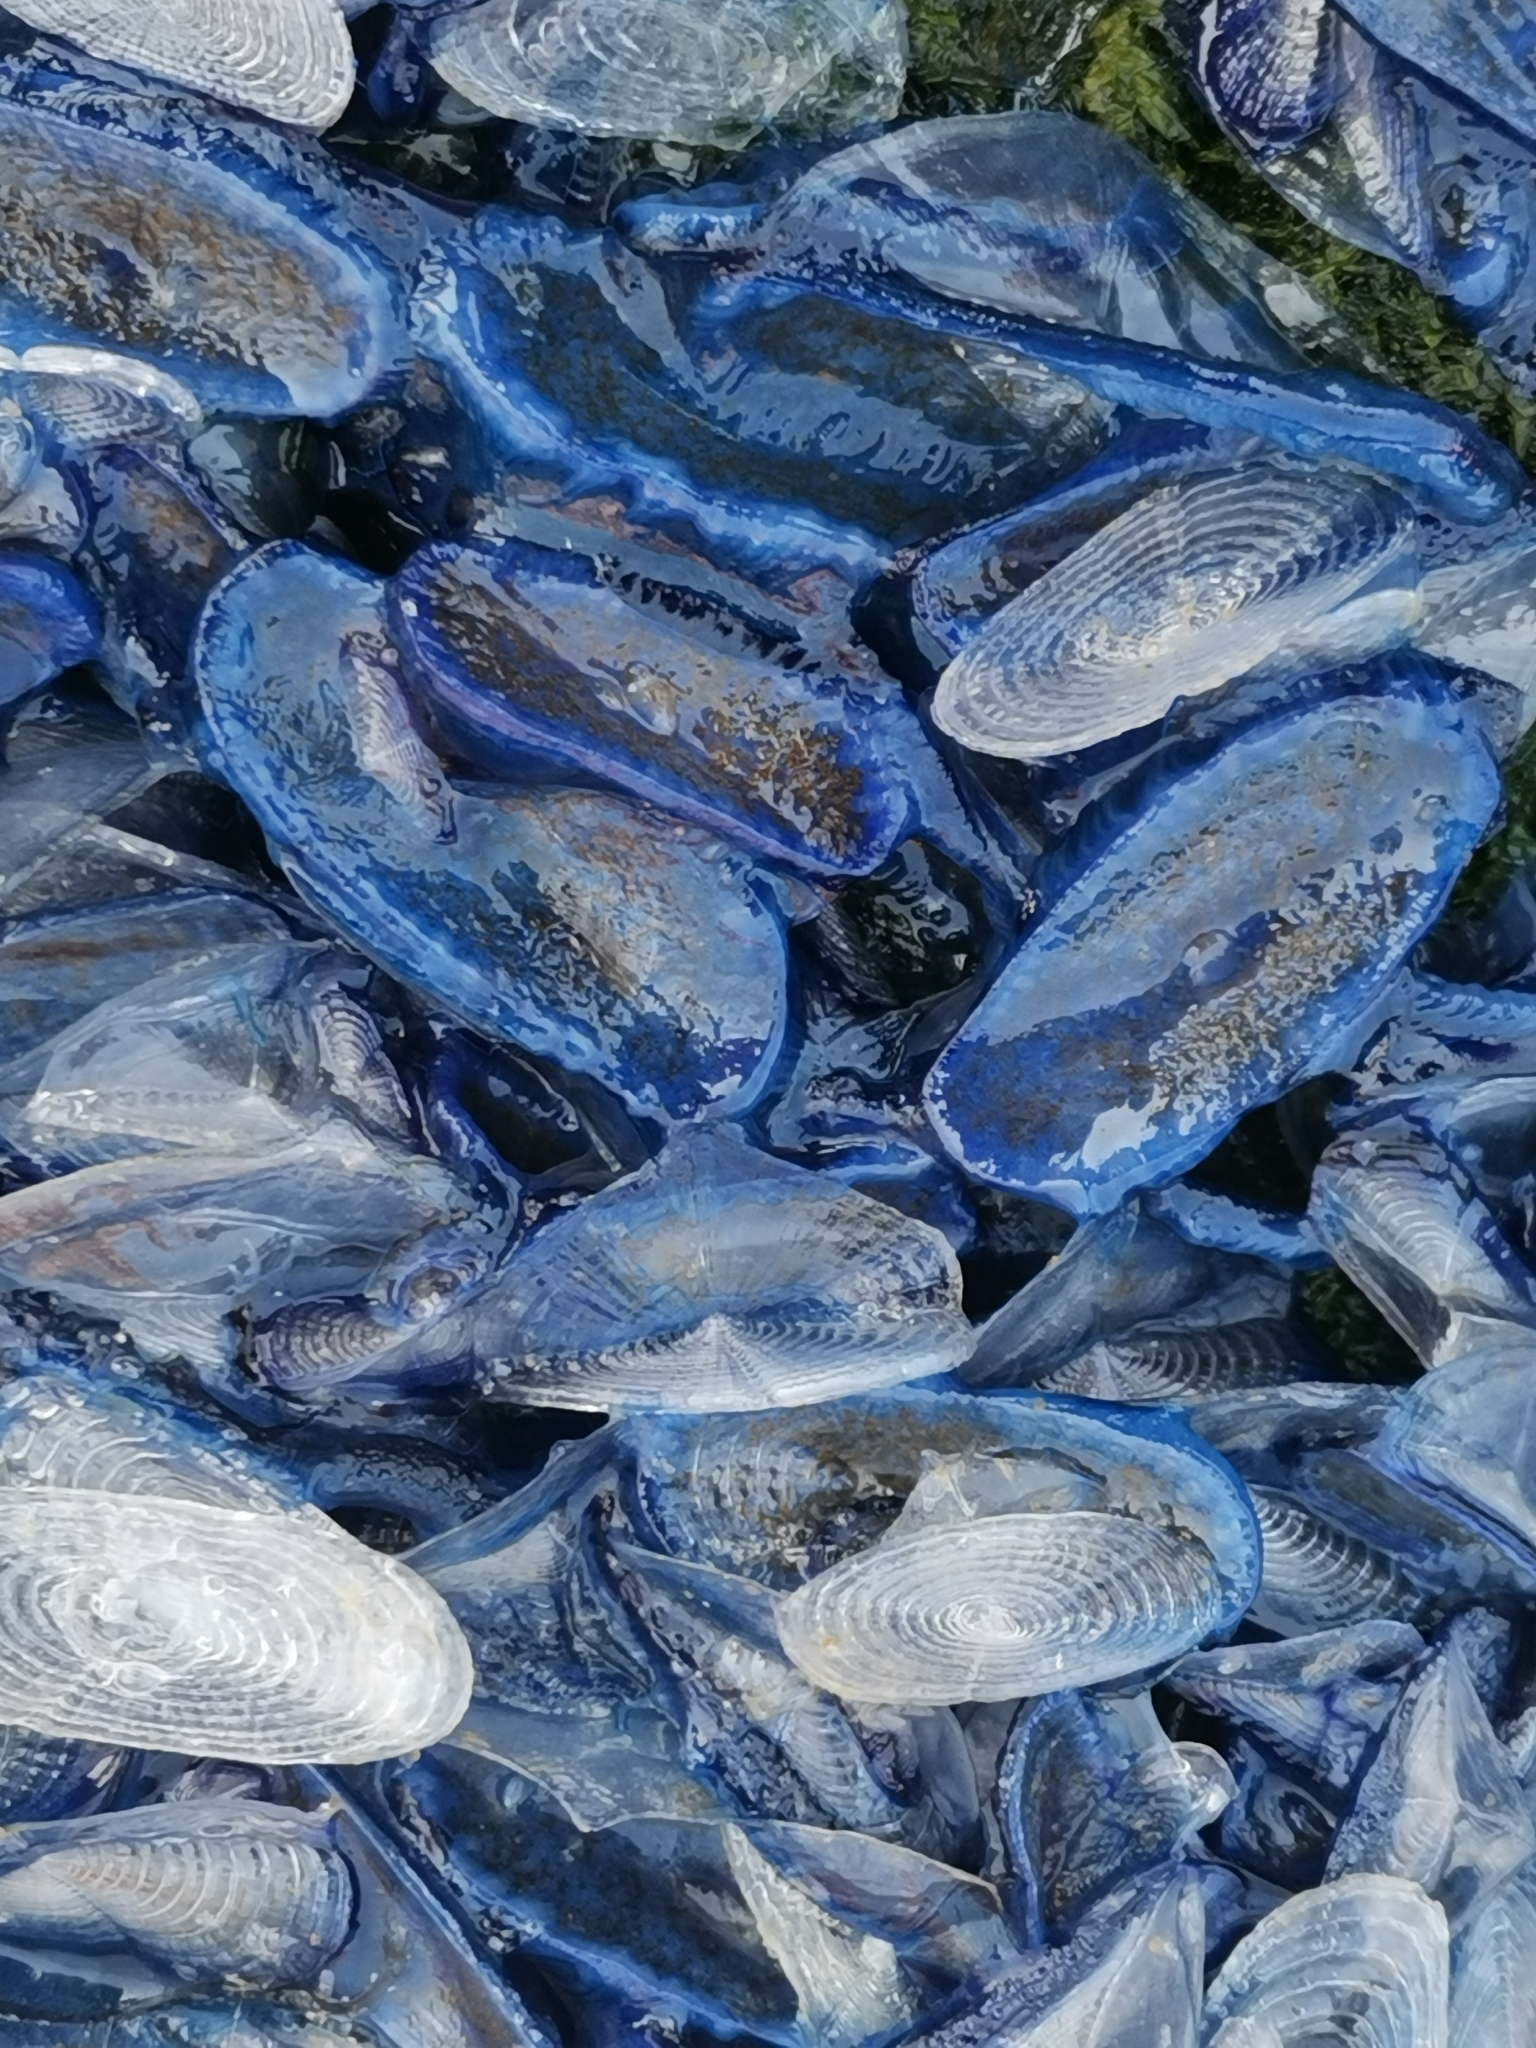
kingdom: Animalia
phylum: Cnidaria
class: Hydrozoa
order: Anthoathecata
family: Porpitidae
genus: Velella
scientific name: Velella velella
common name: By-the-wind-sailor
